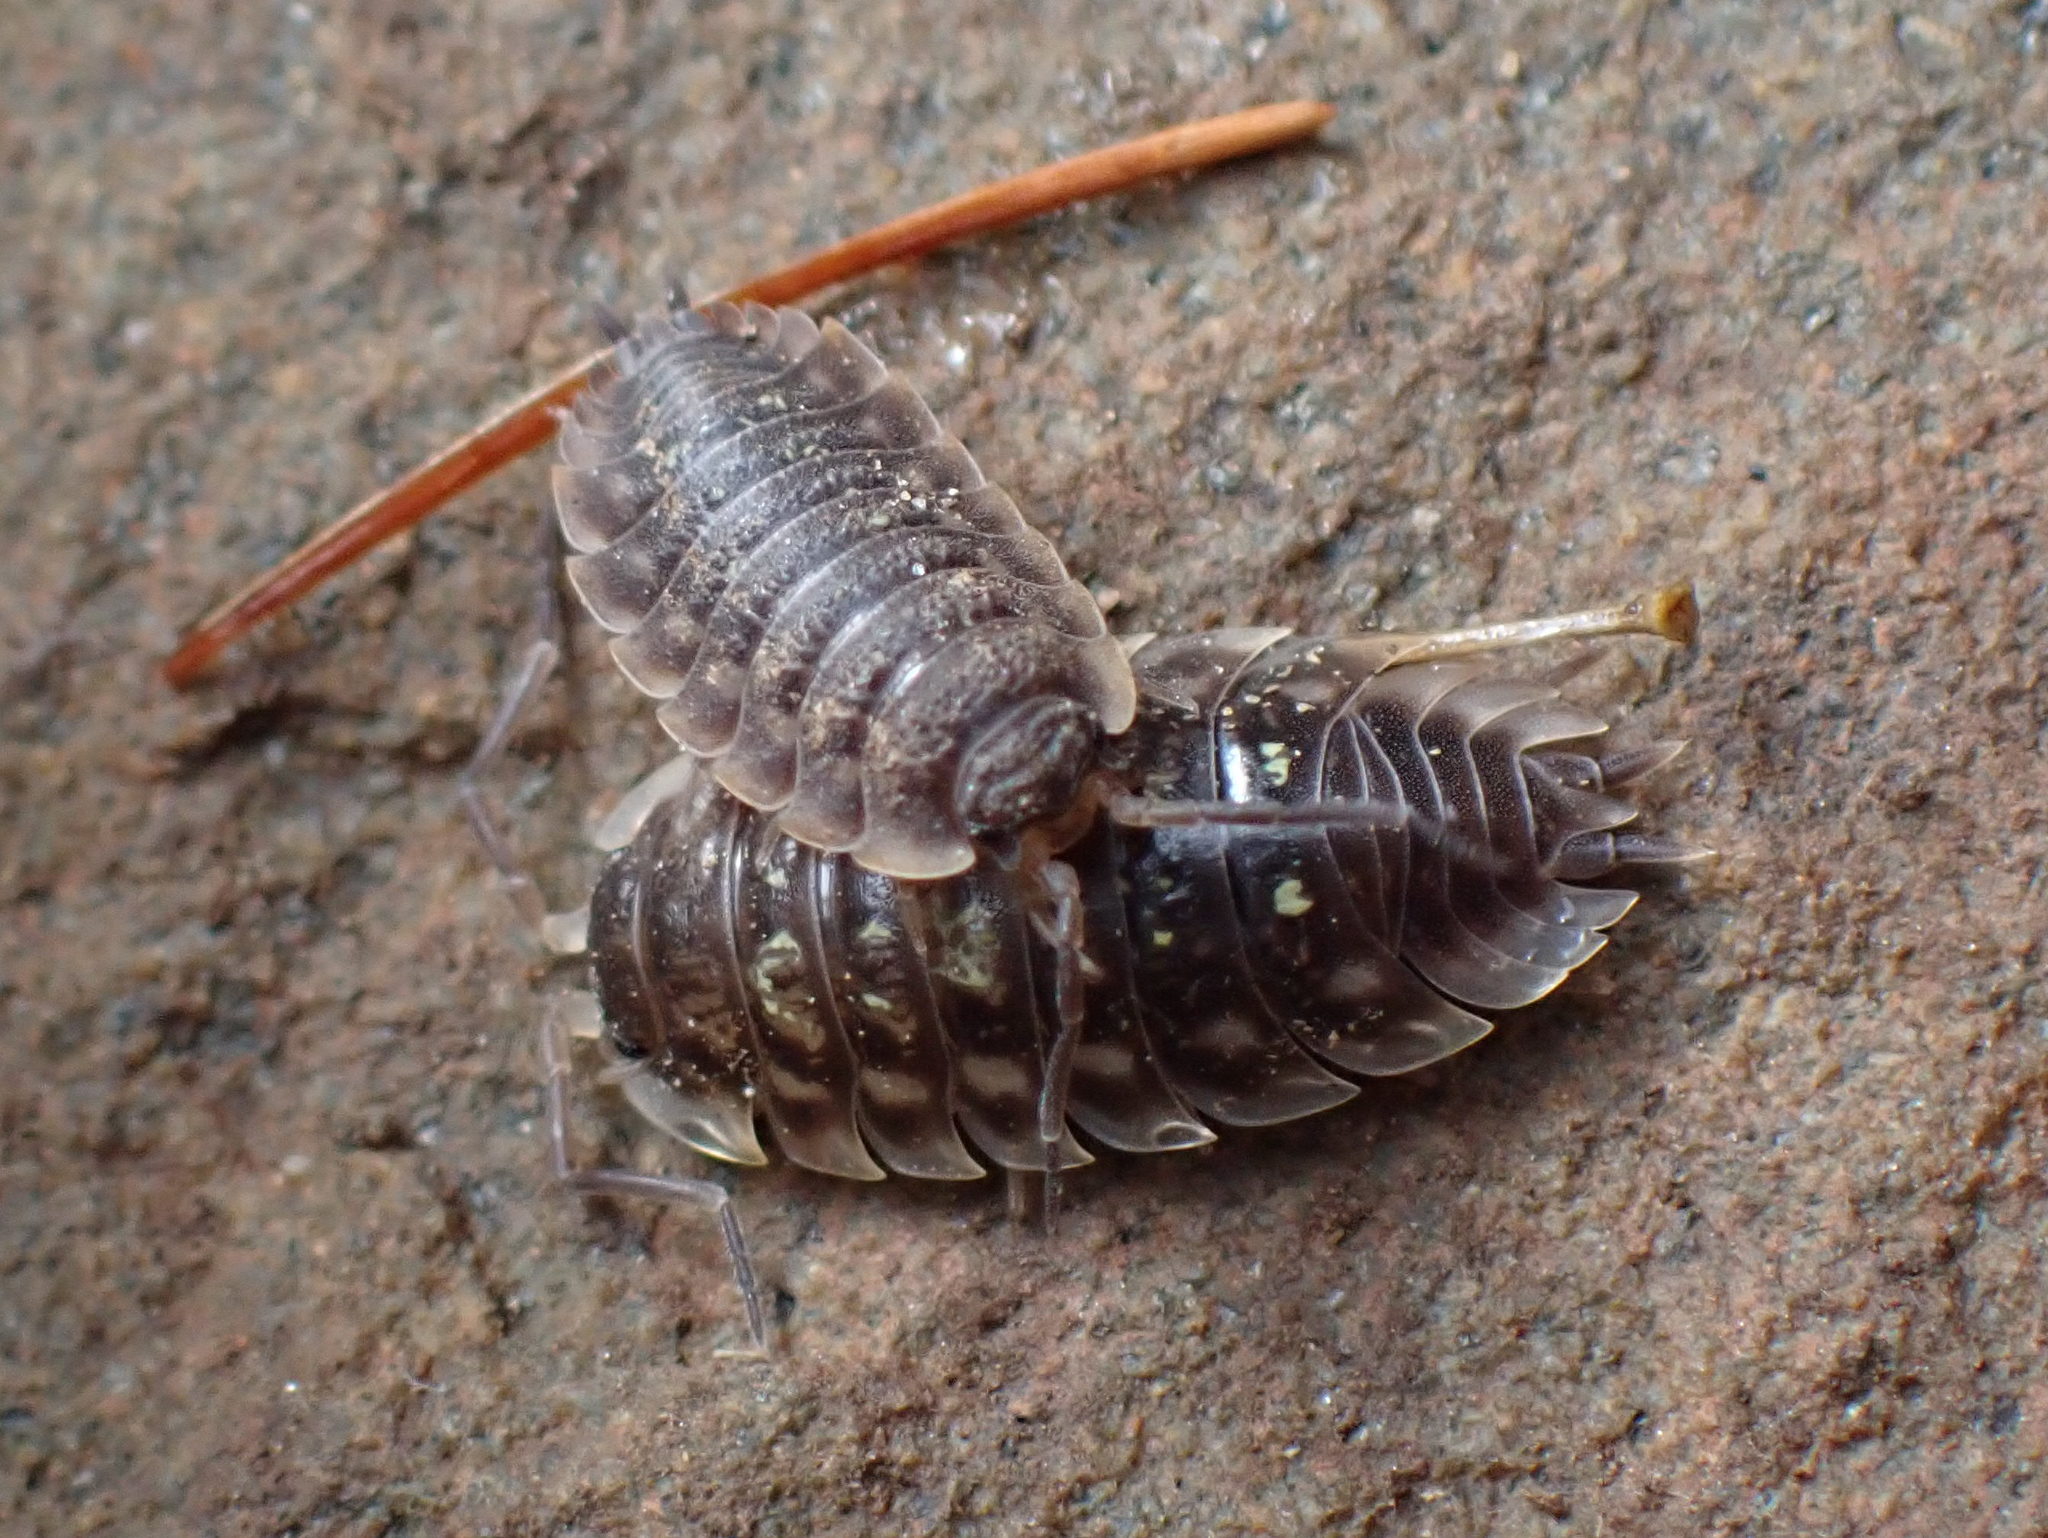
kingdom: Animalia
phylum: Arthropoda
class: Malacostraca
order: Isopoda
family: Oniscidae
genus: Oniscus
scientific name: Oniscus asellus
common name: Common shiny woodlouse
